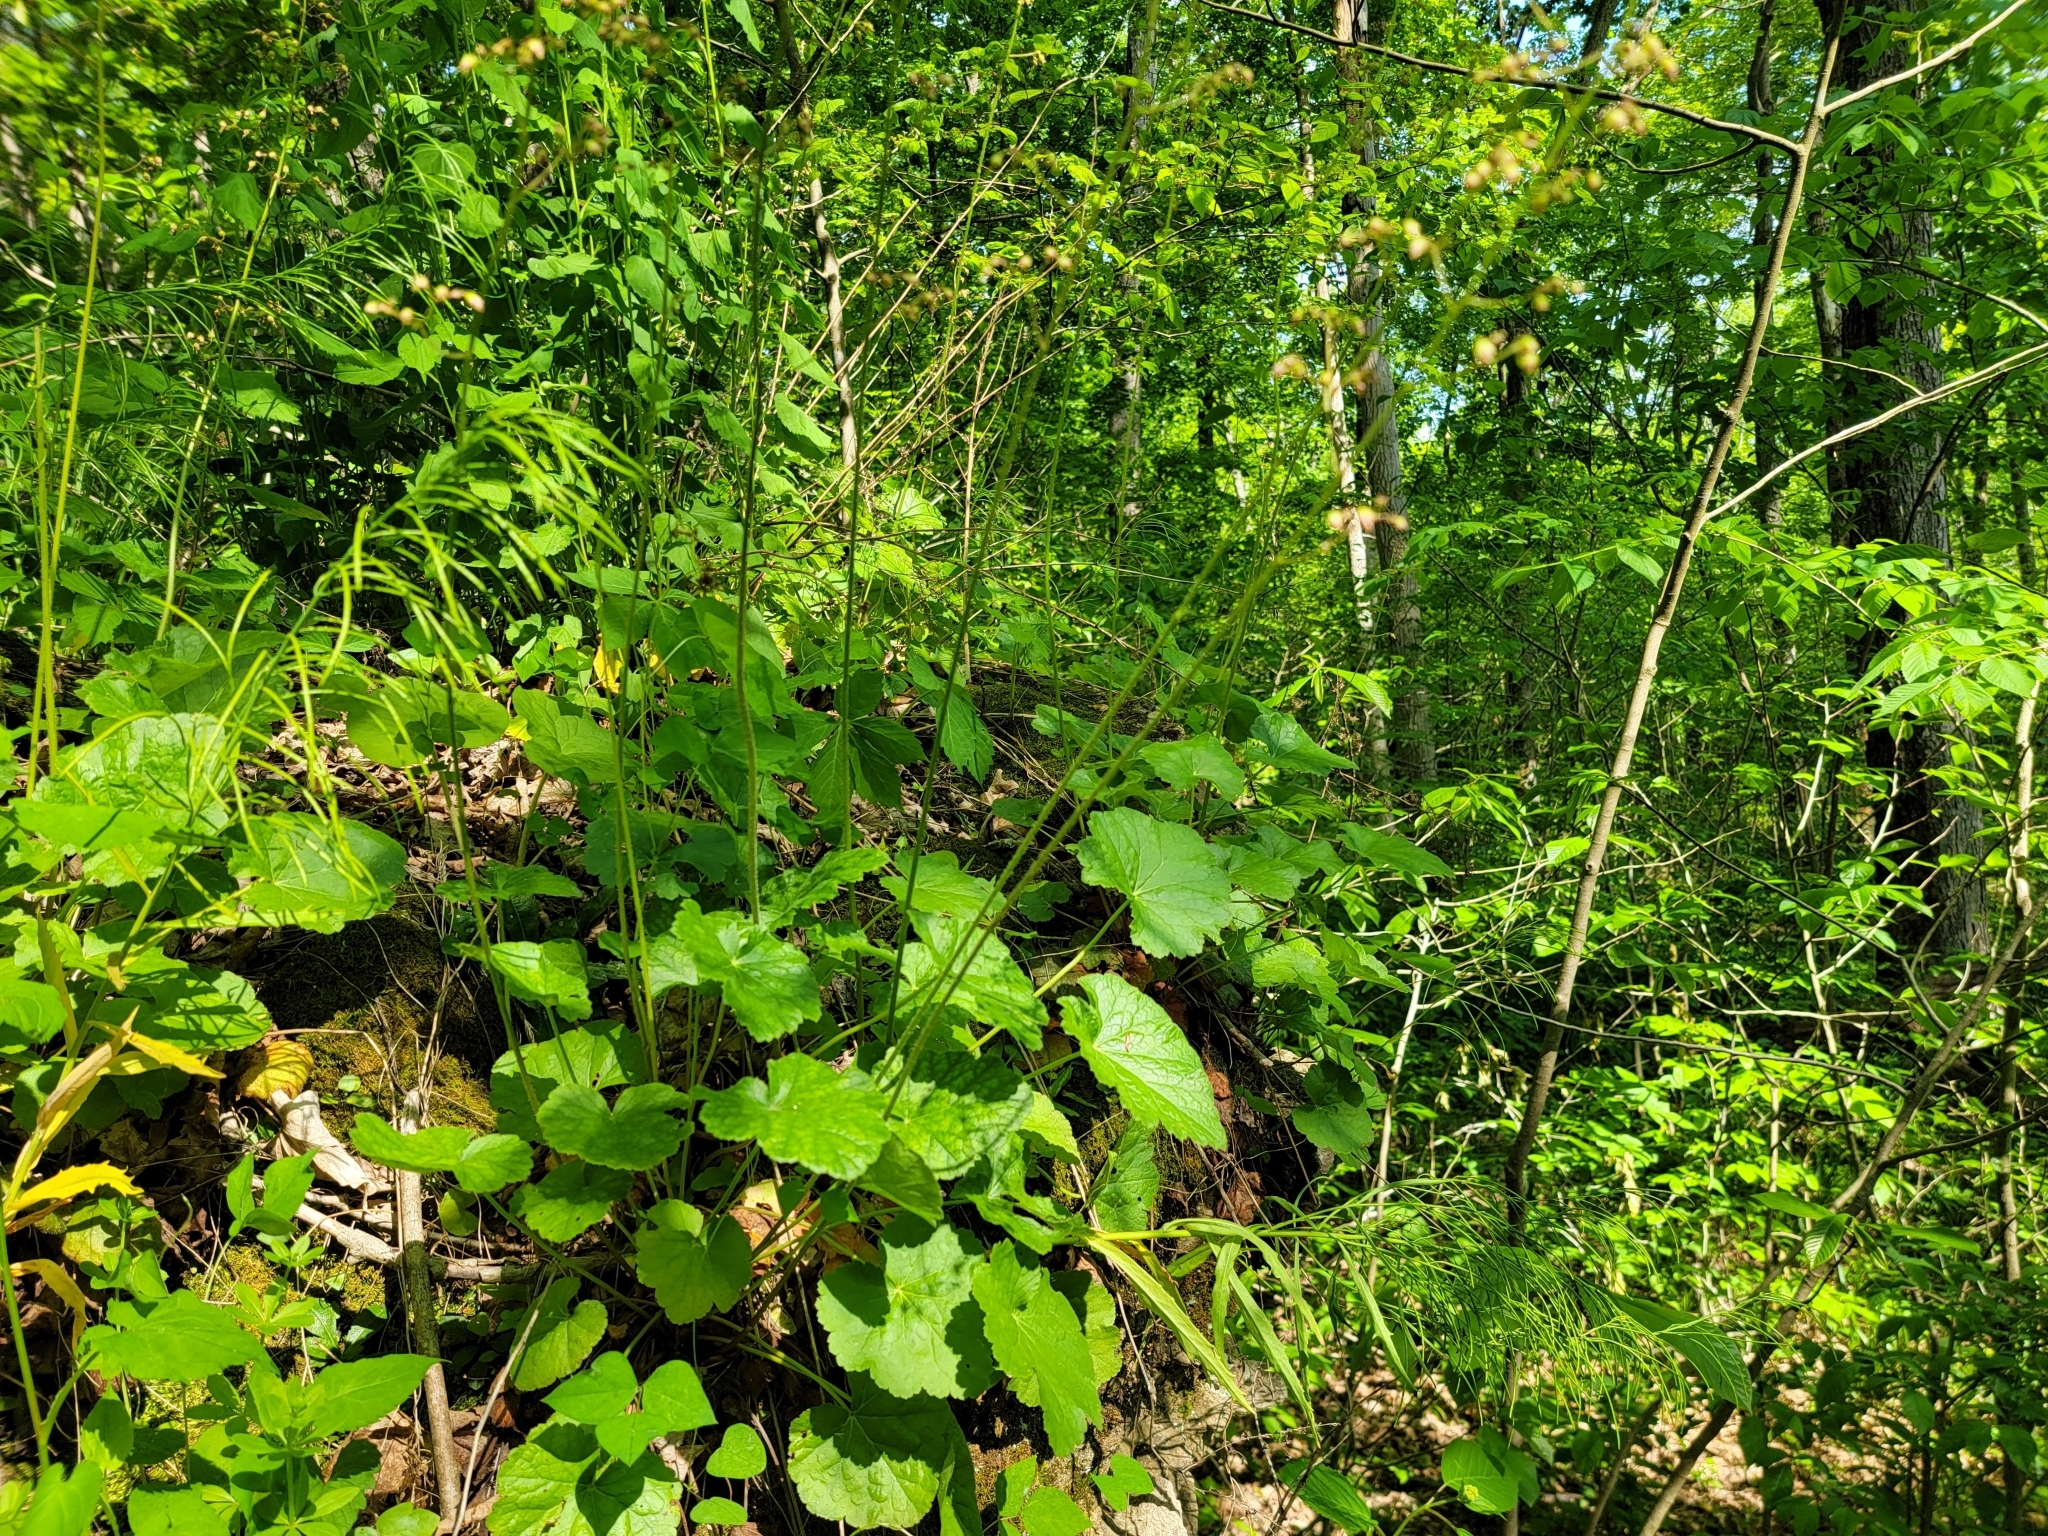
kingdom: Plantae
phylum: Tracheophyta
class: Magnoliopsida
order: Saxifragales
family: Saxifragaceae
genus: Heuchera
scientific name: Heuchera longiflora
